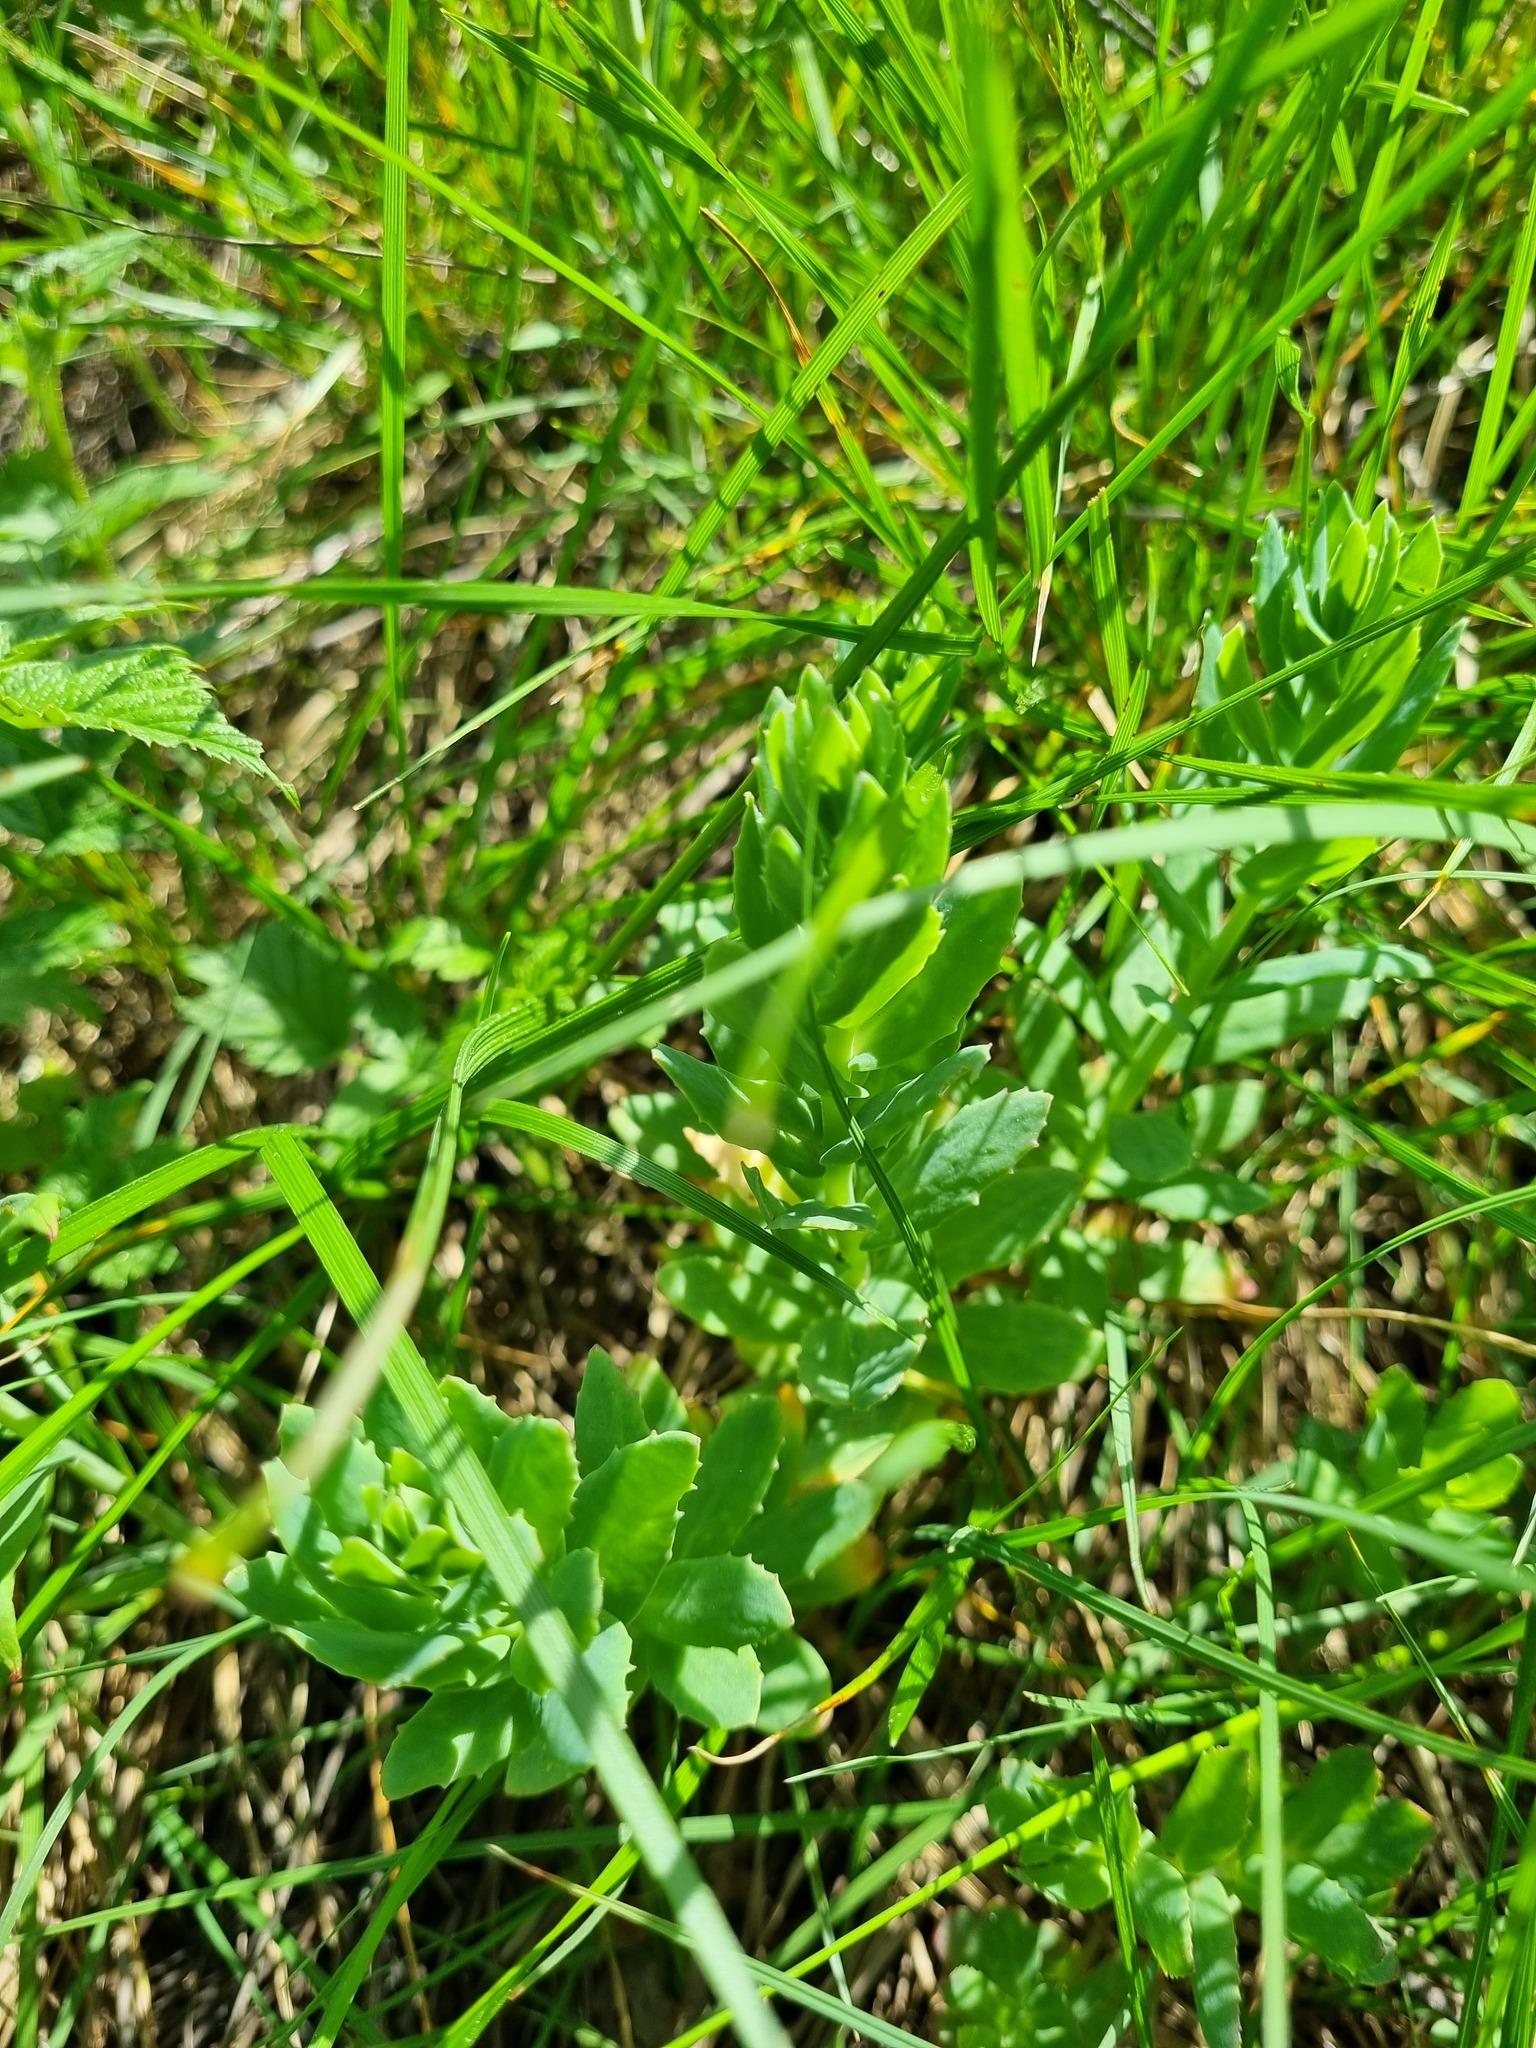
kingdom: Plantae
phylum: Tracheophyta
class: Magnoliopsida
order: Saxifragales
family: Crassulaceae
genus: Hylotelephium
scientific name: Hylotelephium telephium
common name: Live-forever
